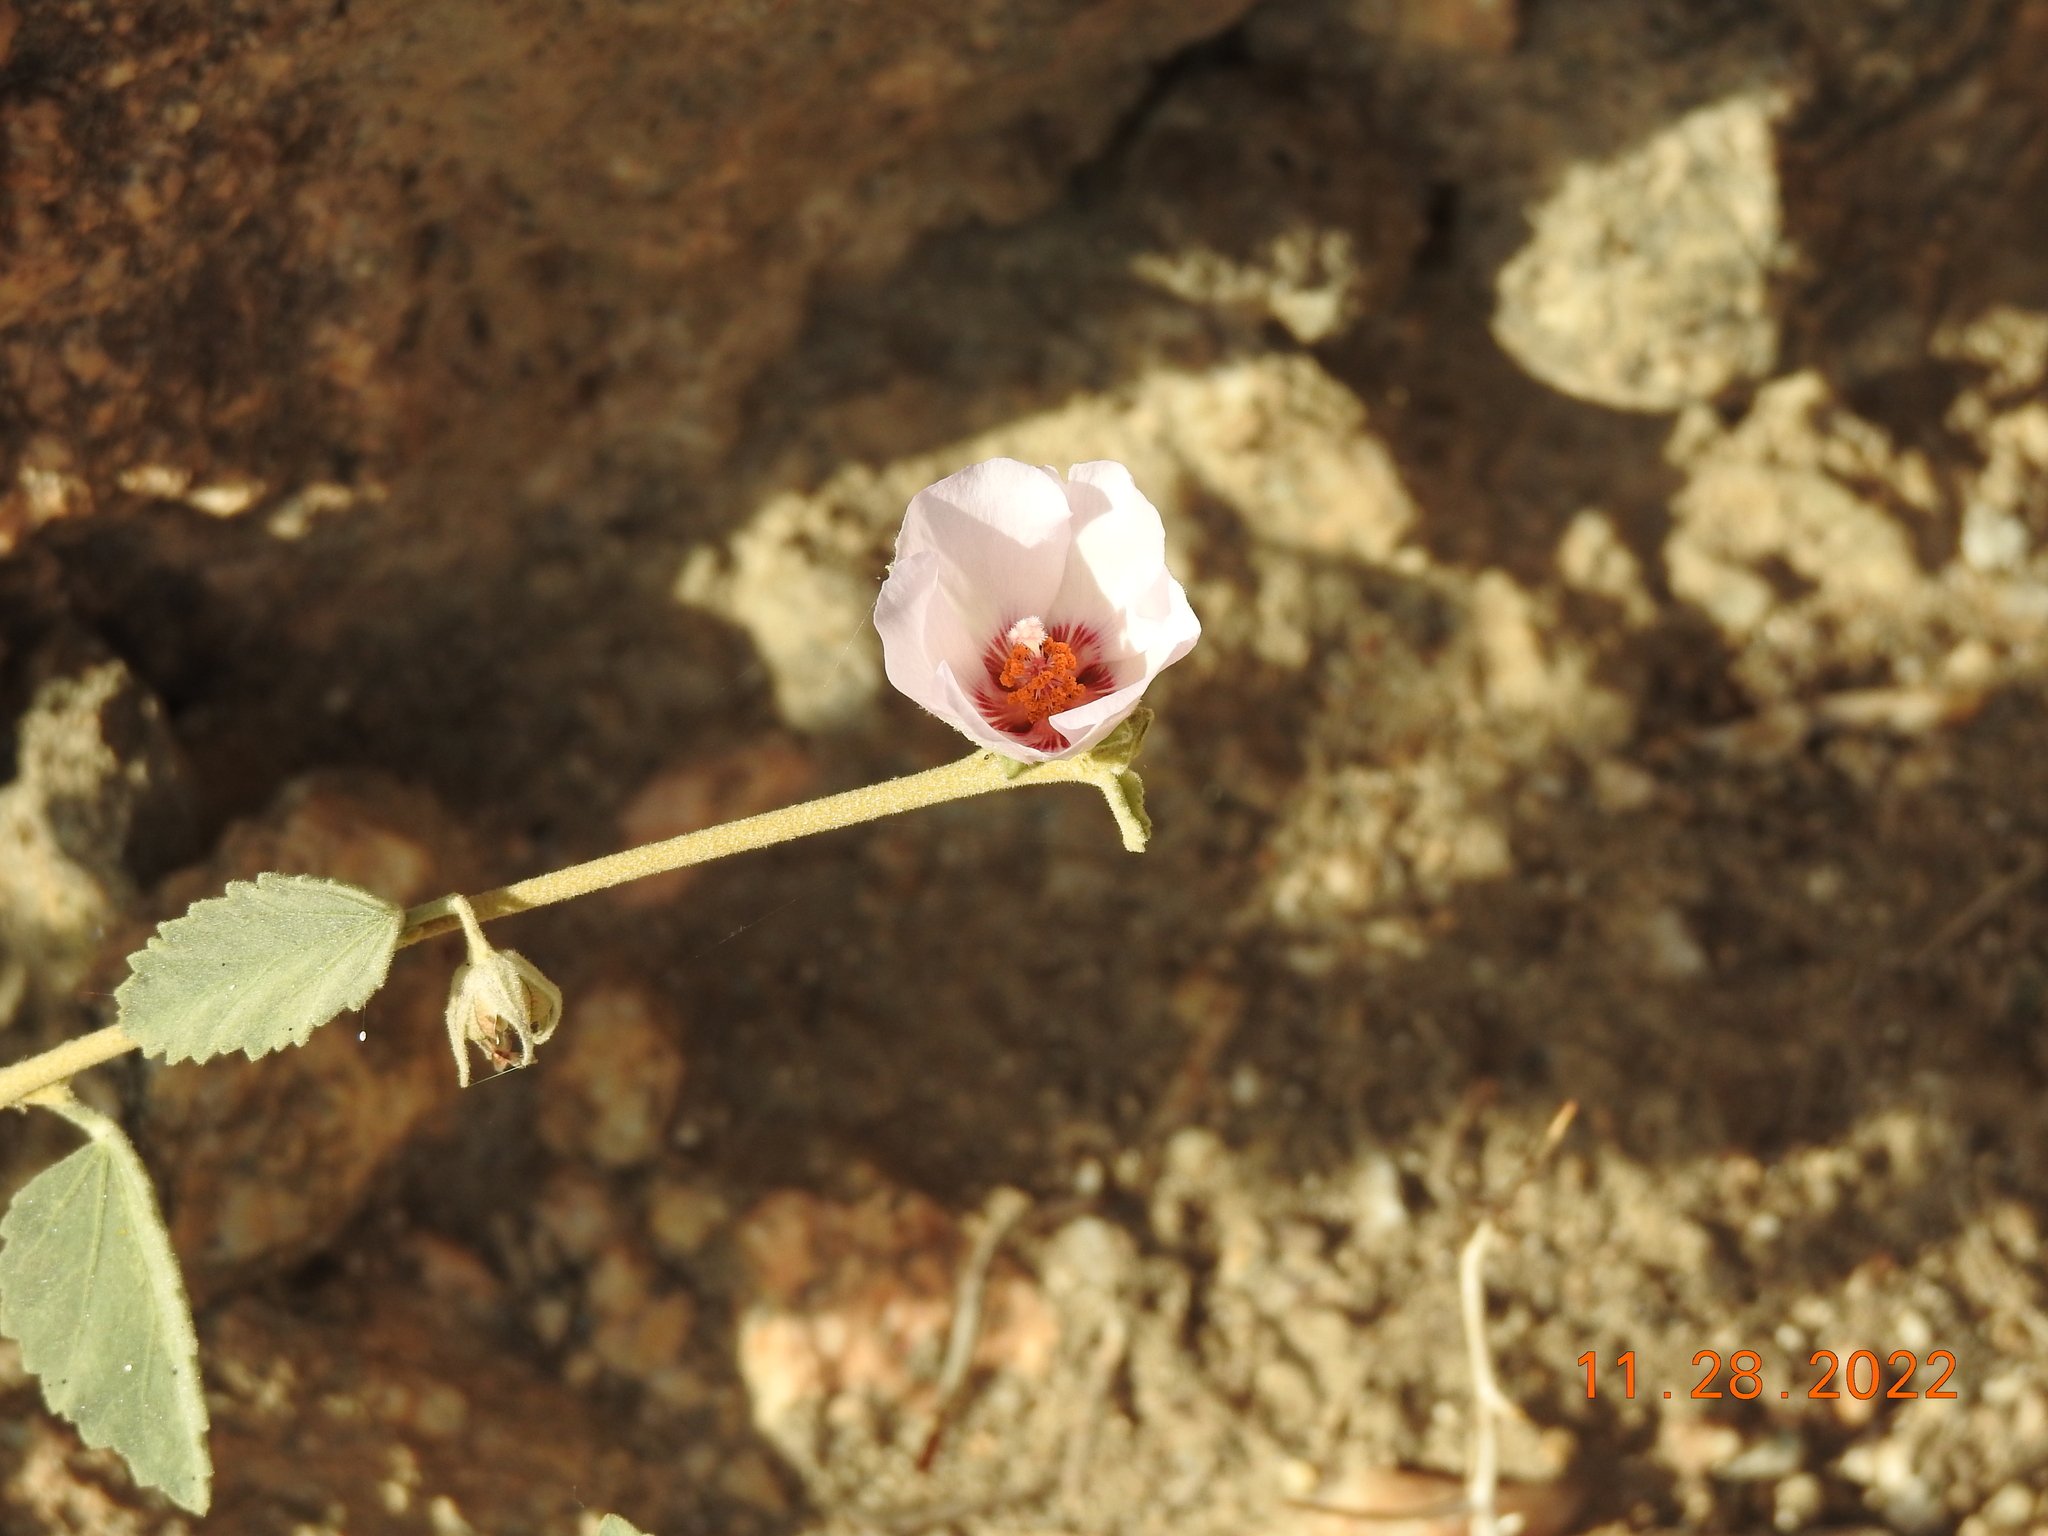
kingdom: Plantae
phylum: Tracheophyta
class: Magnoliopsida
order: Malvales
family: Malvaceae
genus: Hibiscus
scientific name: Hibiscus denudatus
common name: Paleface
